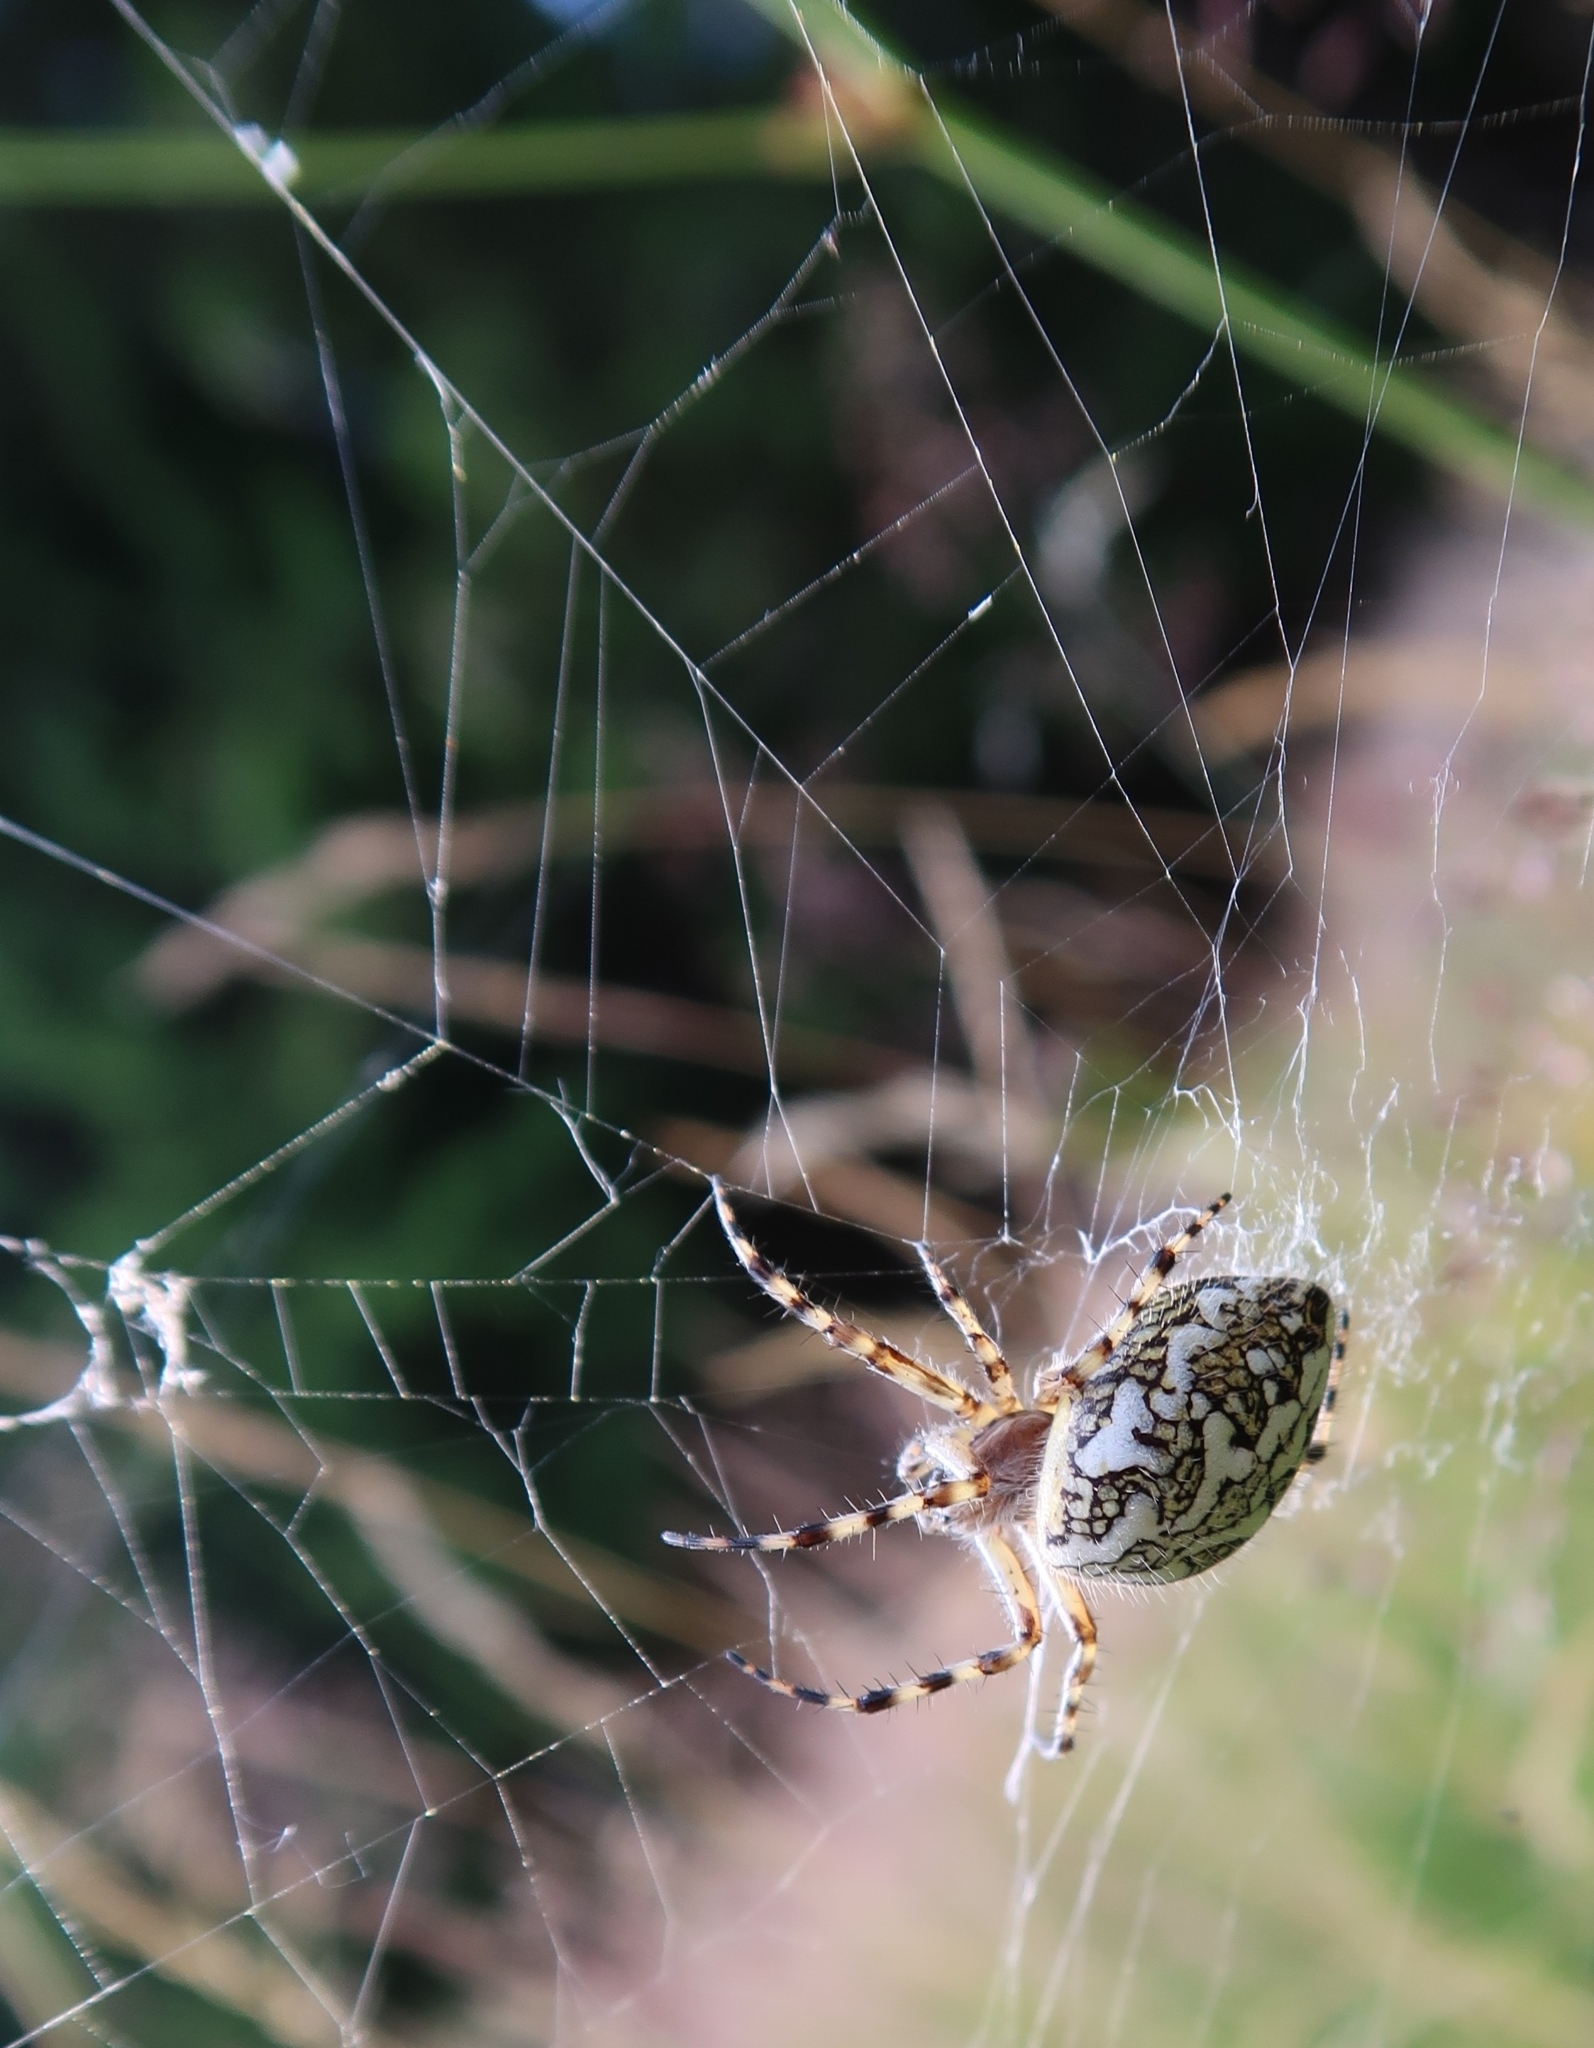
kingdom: Animalia
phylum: Arthropoda
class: Arachnida
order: Araneae
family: Araneidae
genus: Aculepeira
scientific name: Aculepeira ceropegia
